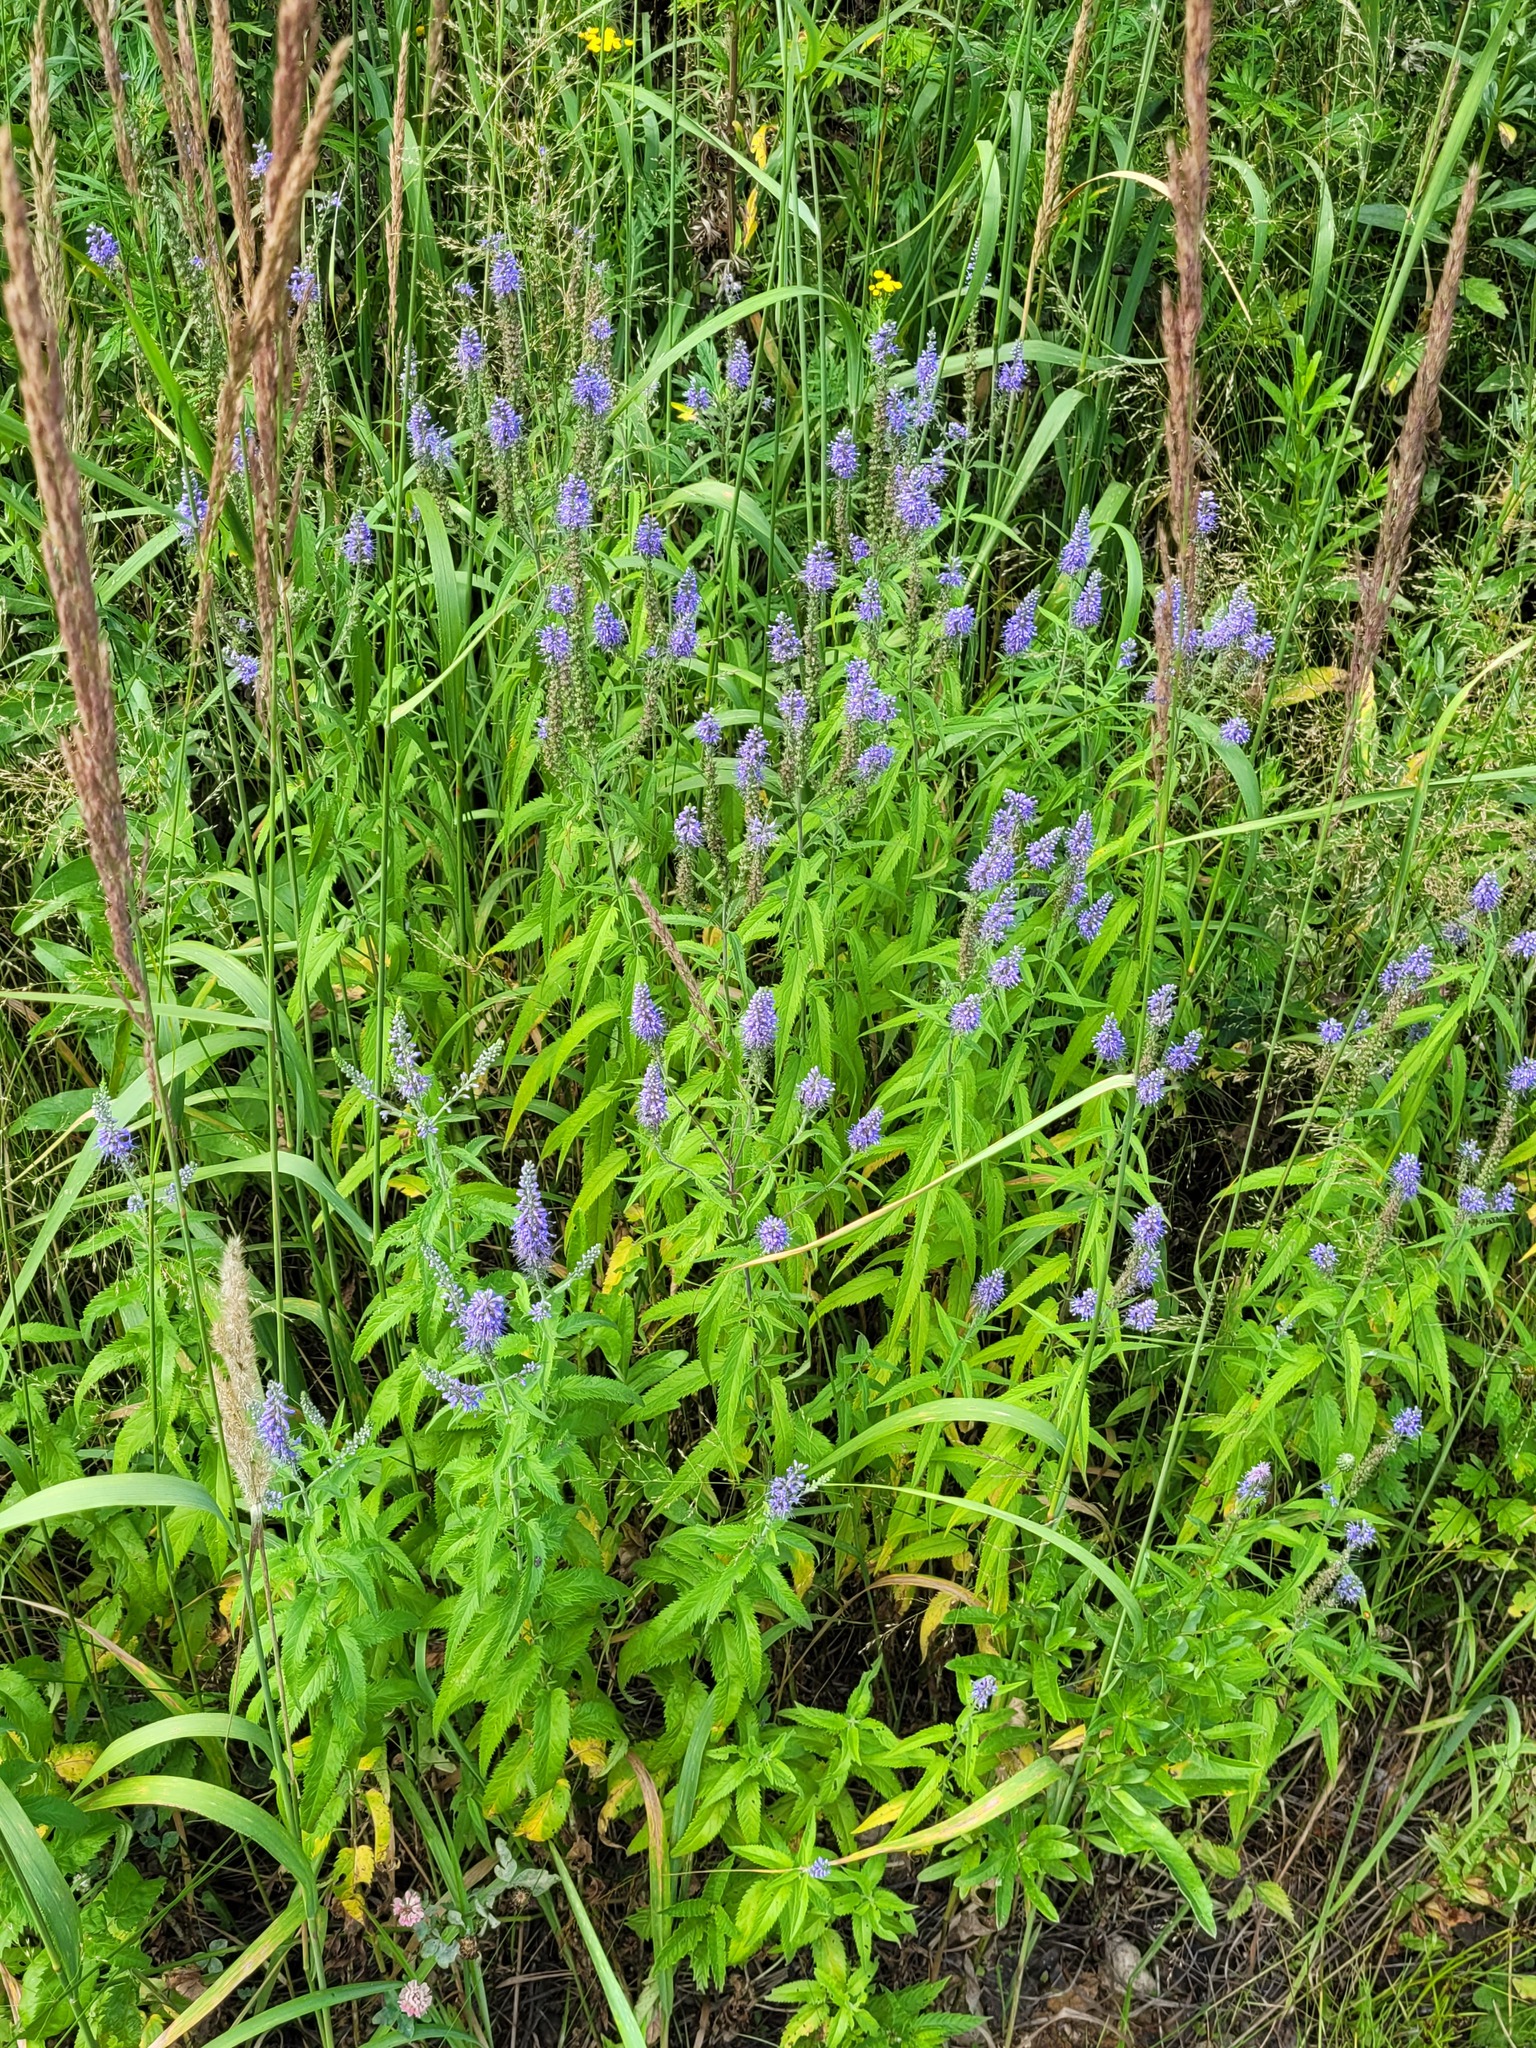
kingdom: Plantae
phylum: Tracheophyta
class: Magnoliopsida
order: Lamiales
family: Plantaginaceae
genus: Veronica
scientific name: Veronica longifolia
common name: Garden speedwell
